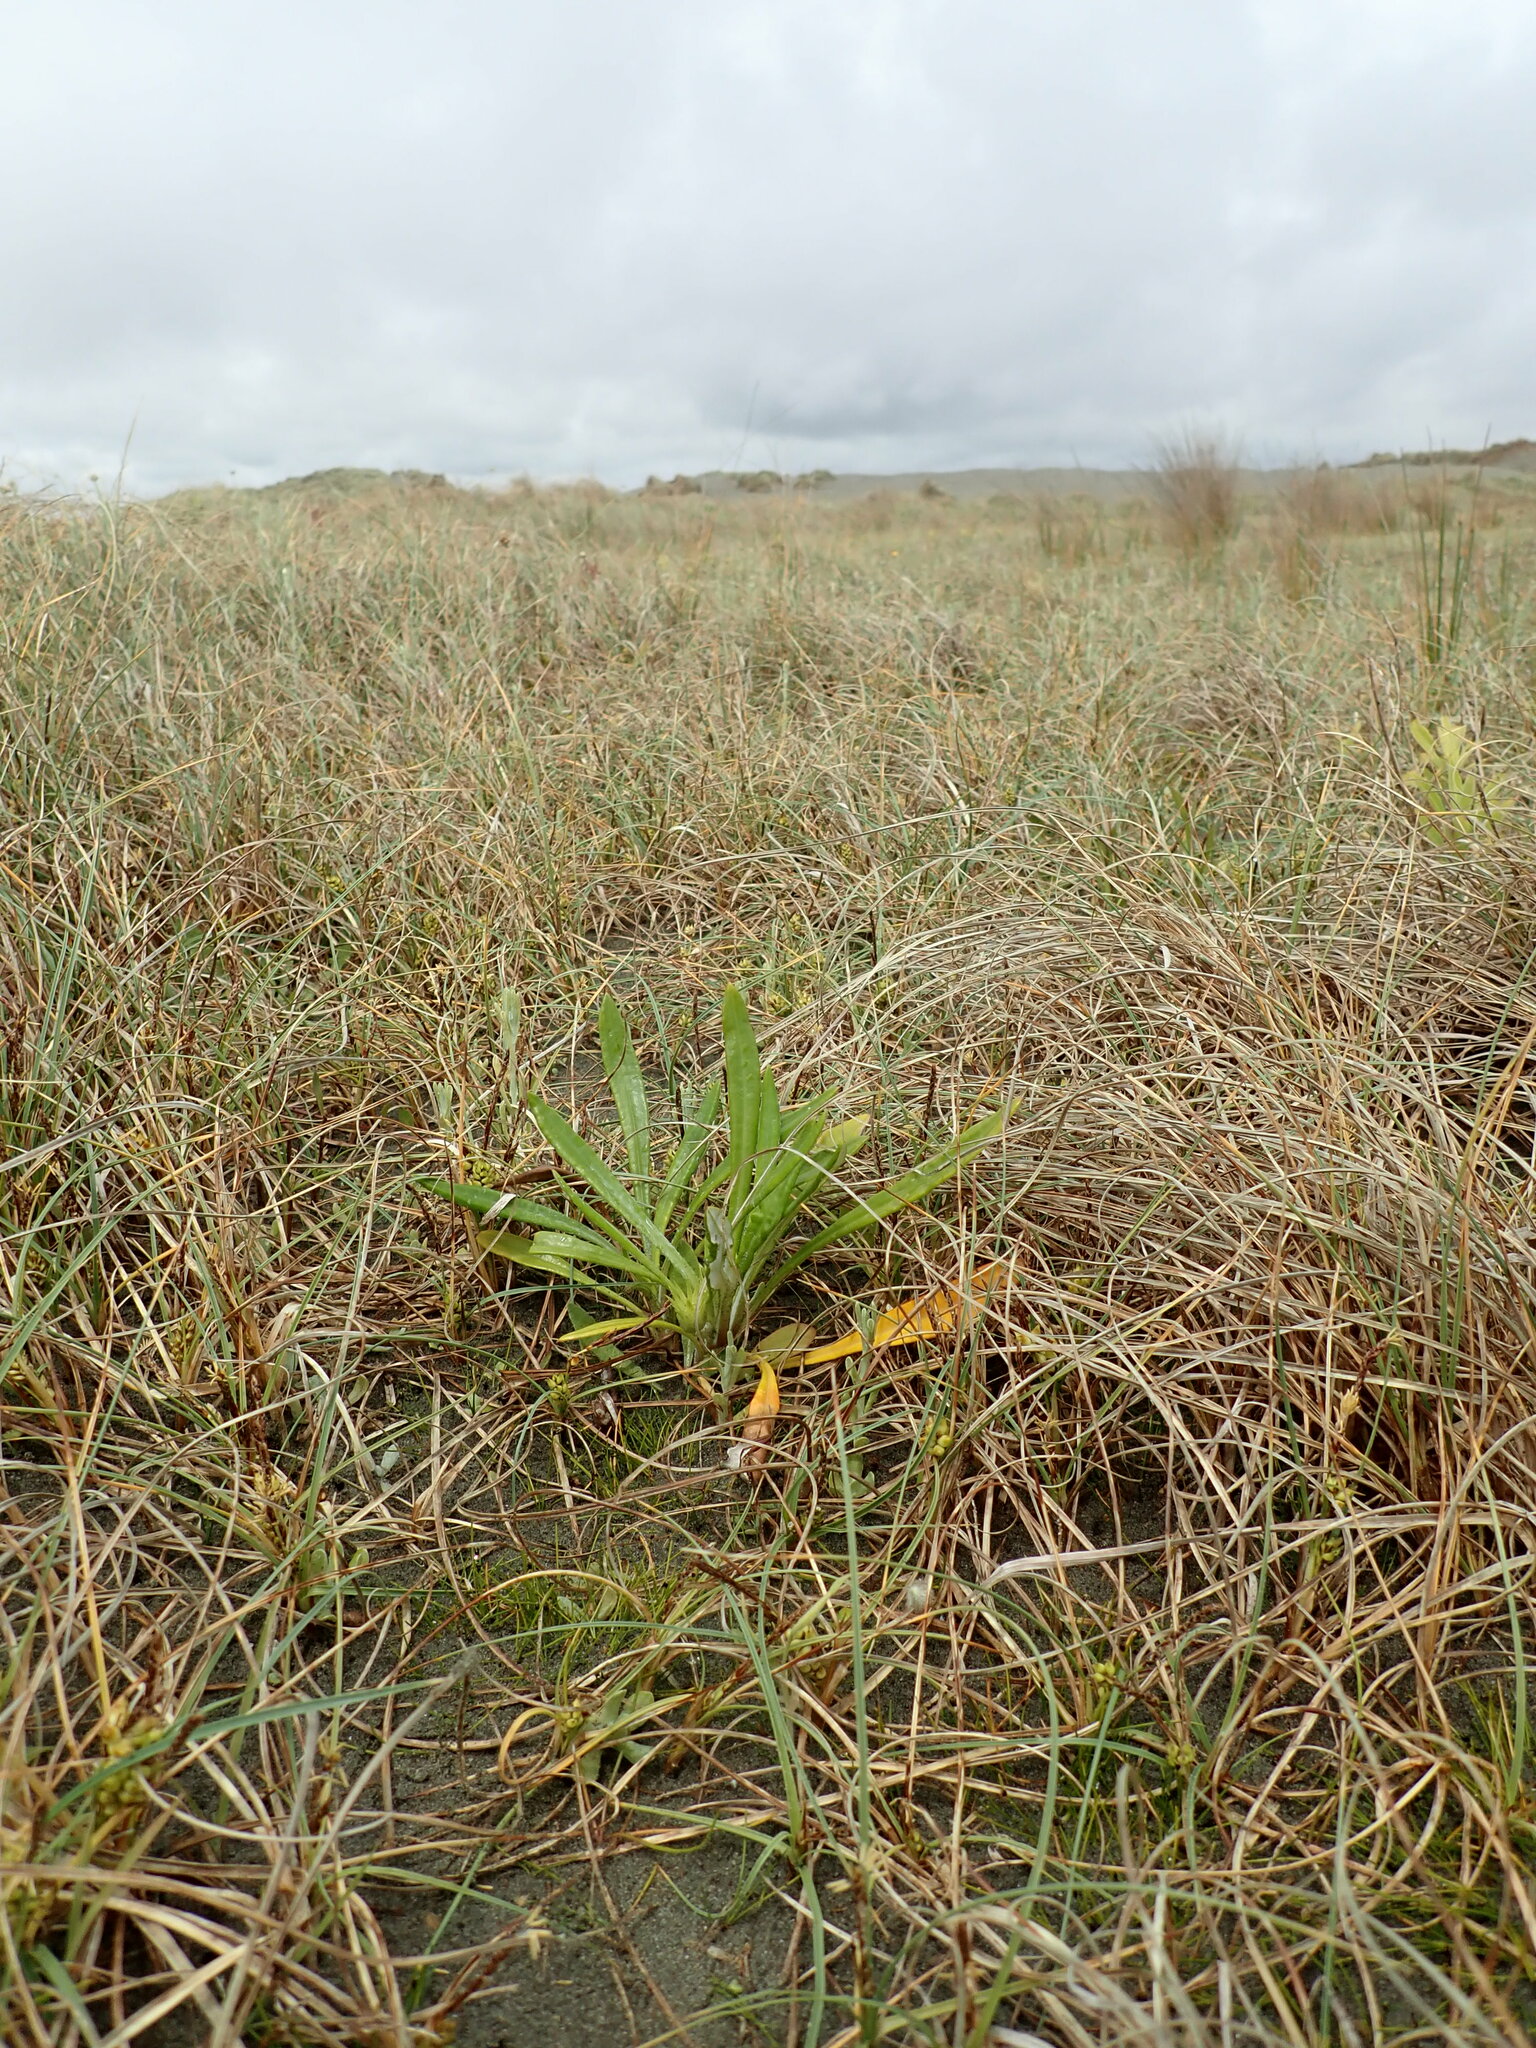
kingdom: Plantae
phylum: Tracheophyta
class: Magnoliopsida
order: Asterales
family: Asteraceae
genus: Gazania
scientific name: Gazania splendens
